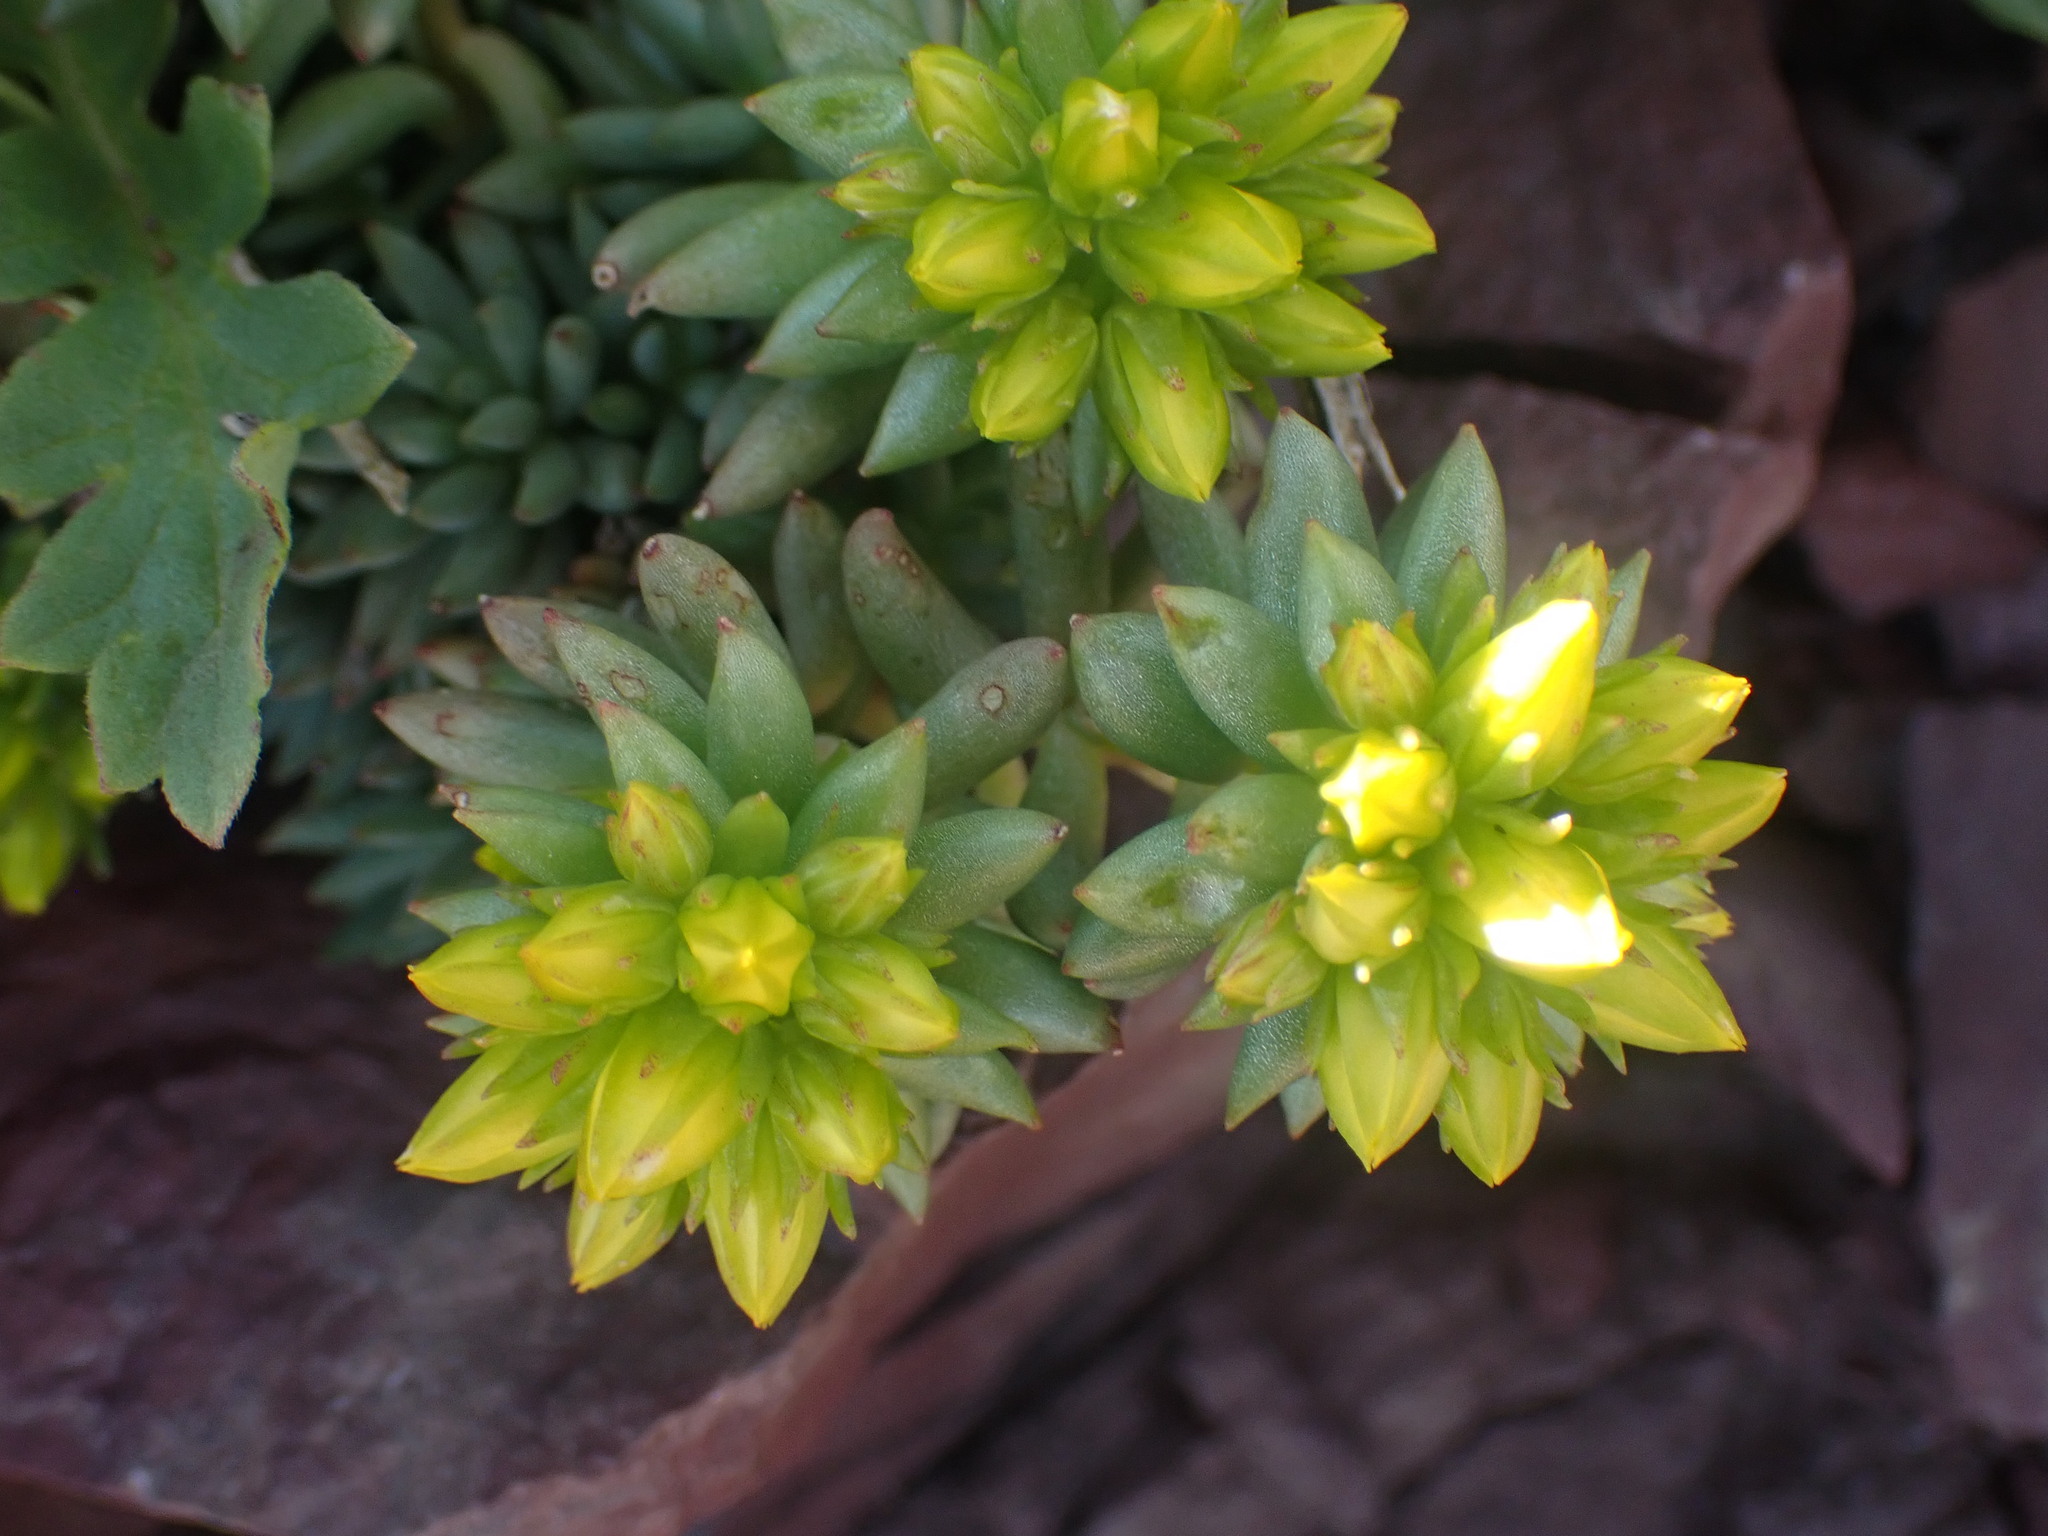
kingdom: Plantae
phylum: Tracheophyta
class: Magnoliopsida
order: Saxifragales
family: Crassulaceae
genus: Sedum
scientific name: Sedum lanceolatum
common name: Common stonecrop
